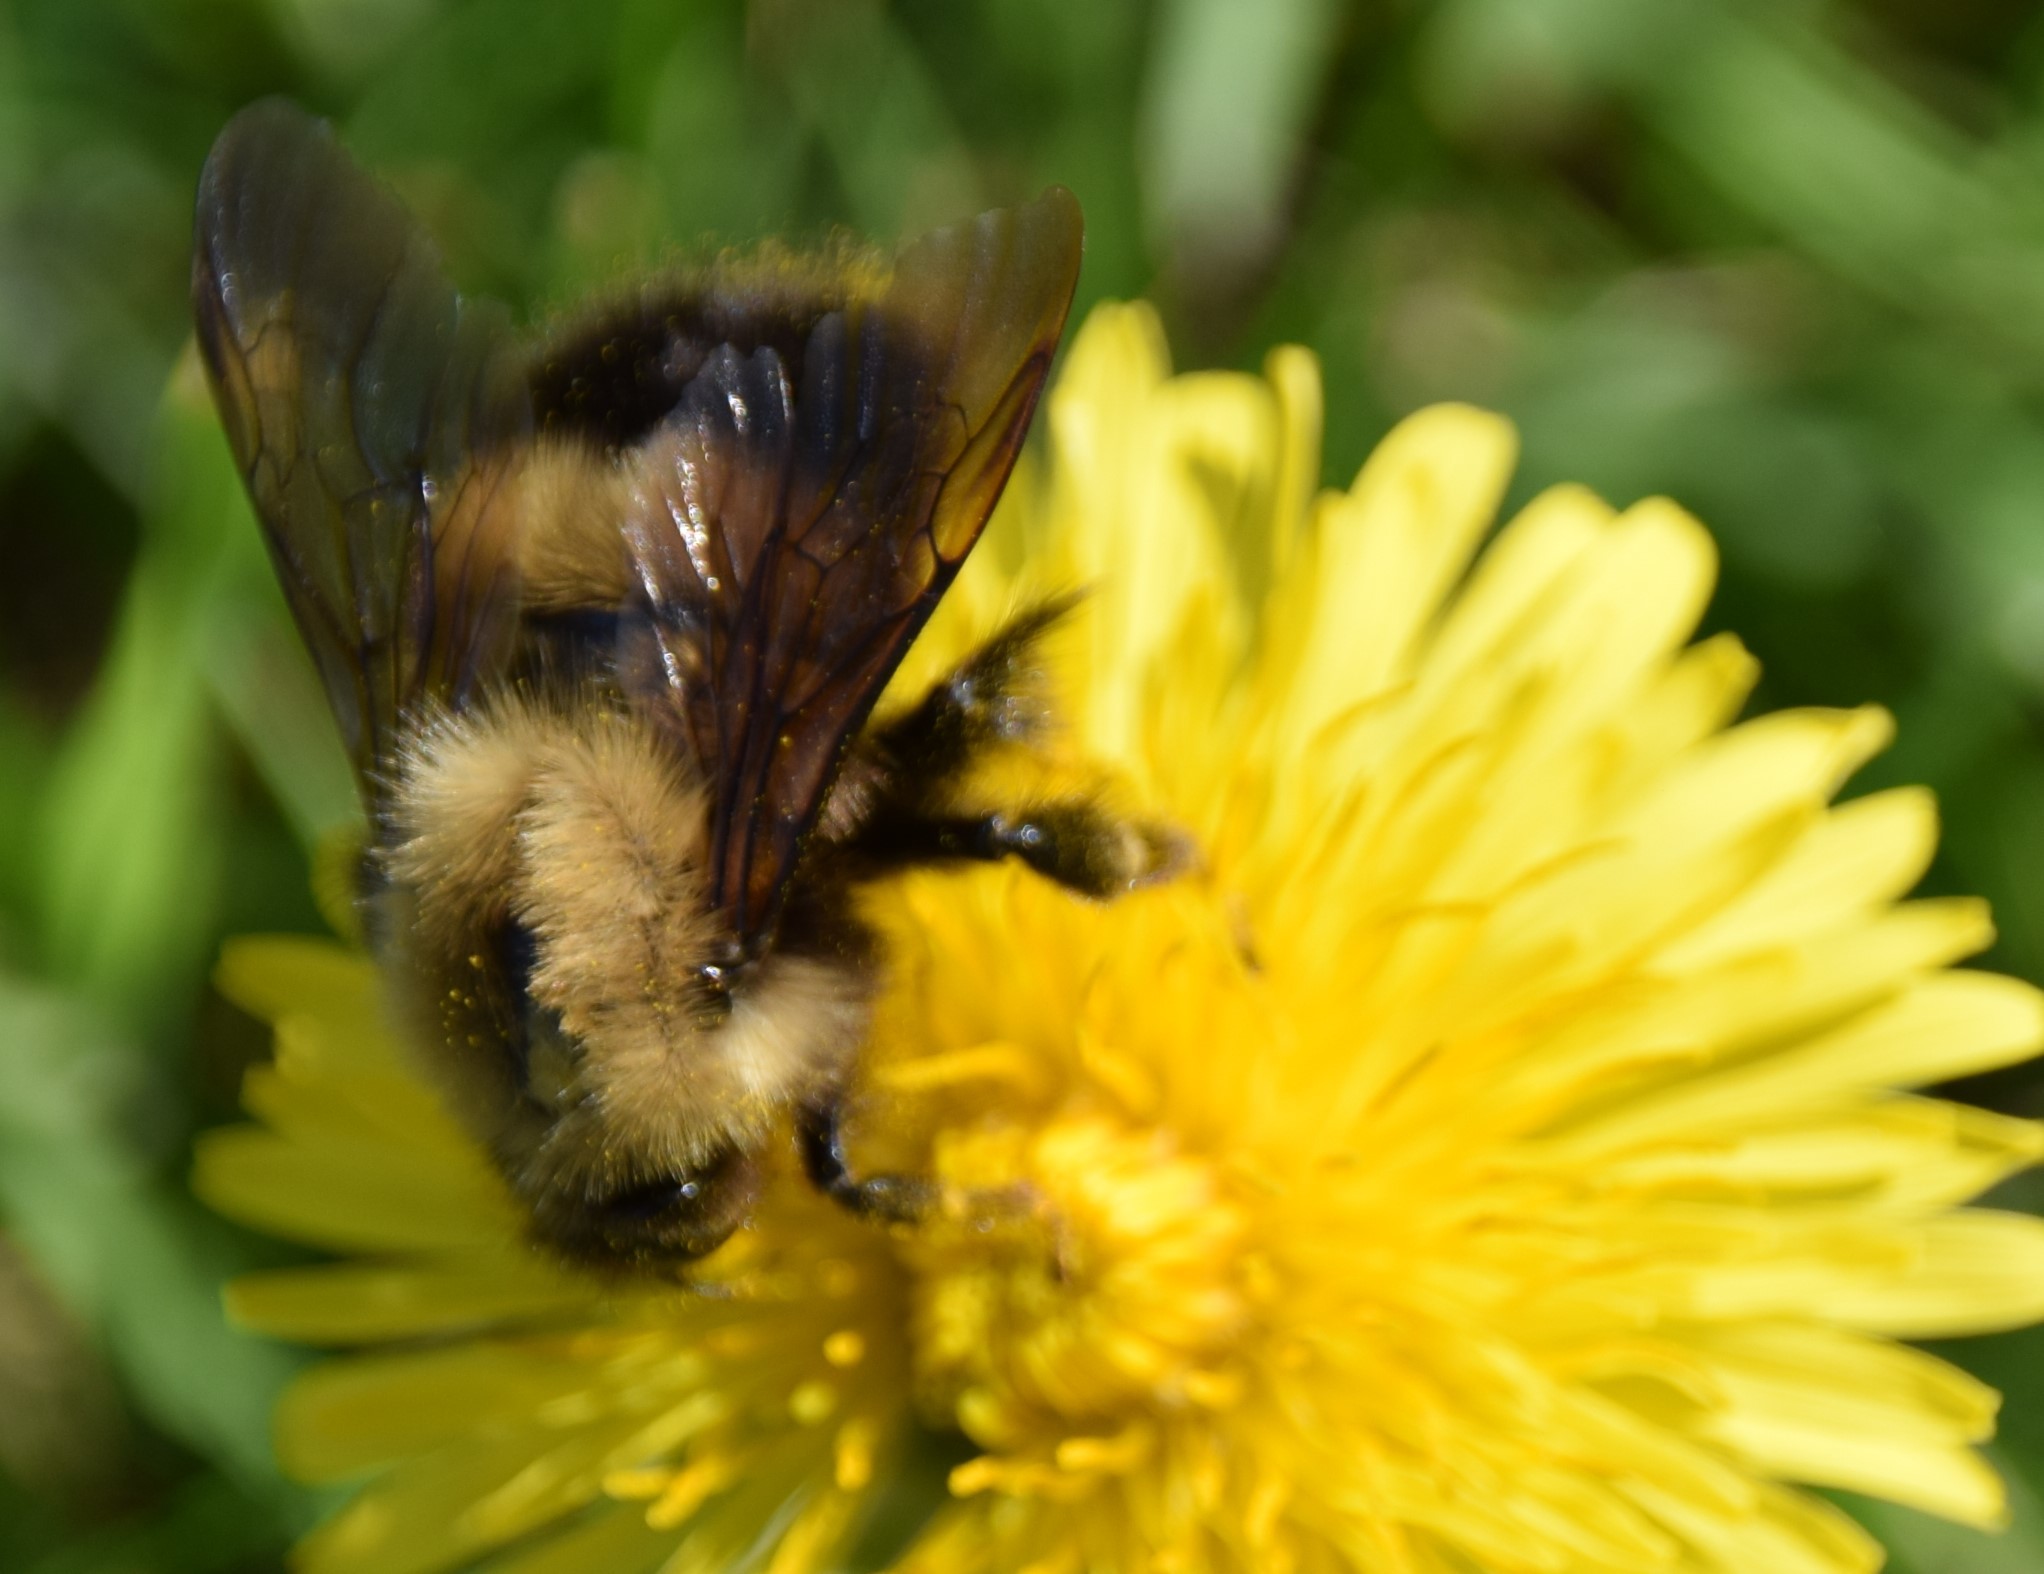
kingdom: Animalia
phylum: Arthropoda
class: Insecta
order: Hymenoptera
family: Apidae
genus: Bombus
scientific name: Bombus perplexus
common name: Confusing bumble bee
